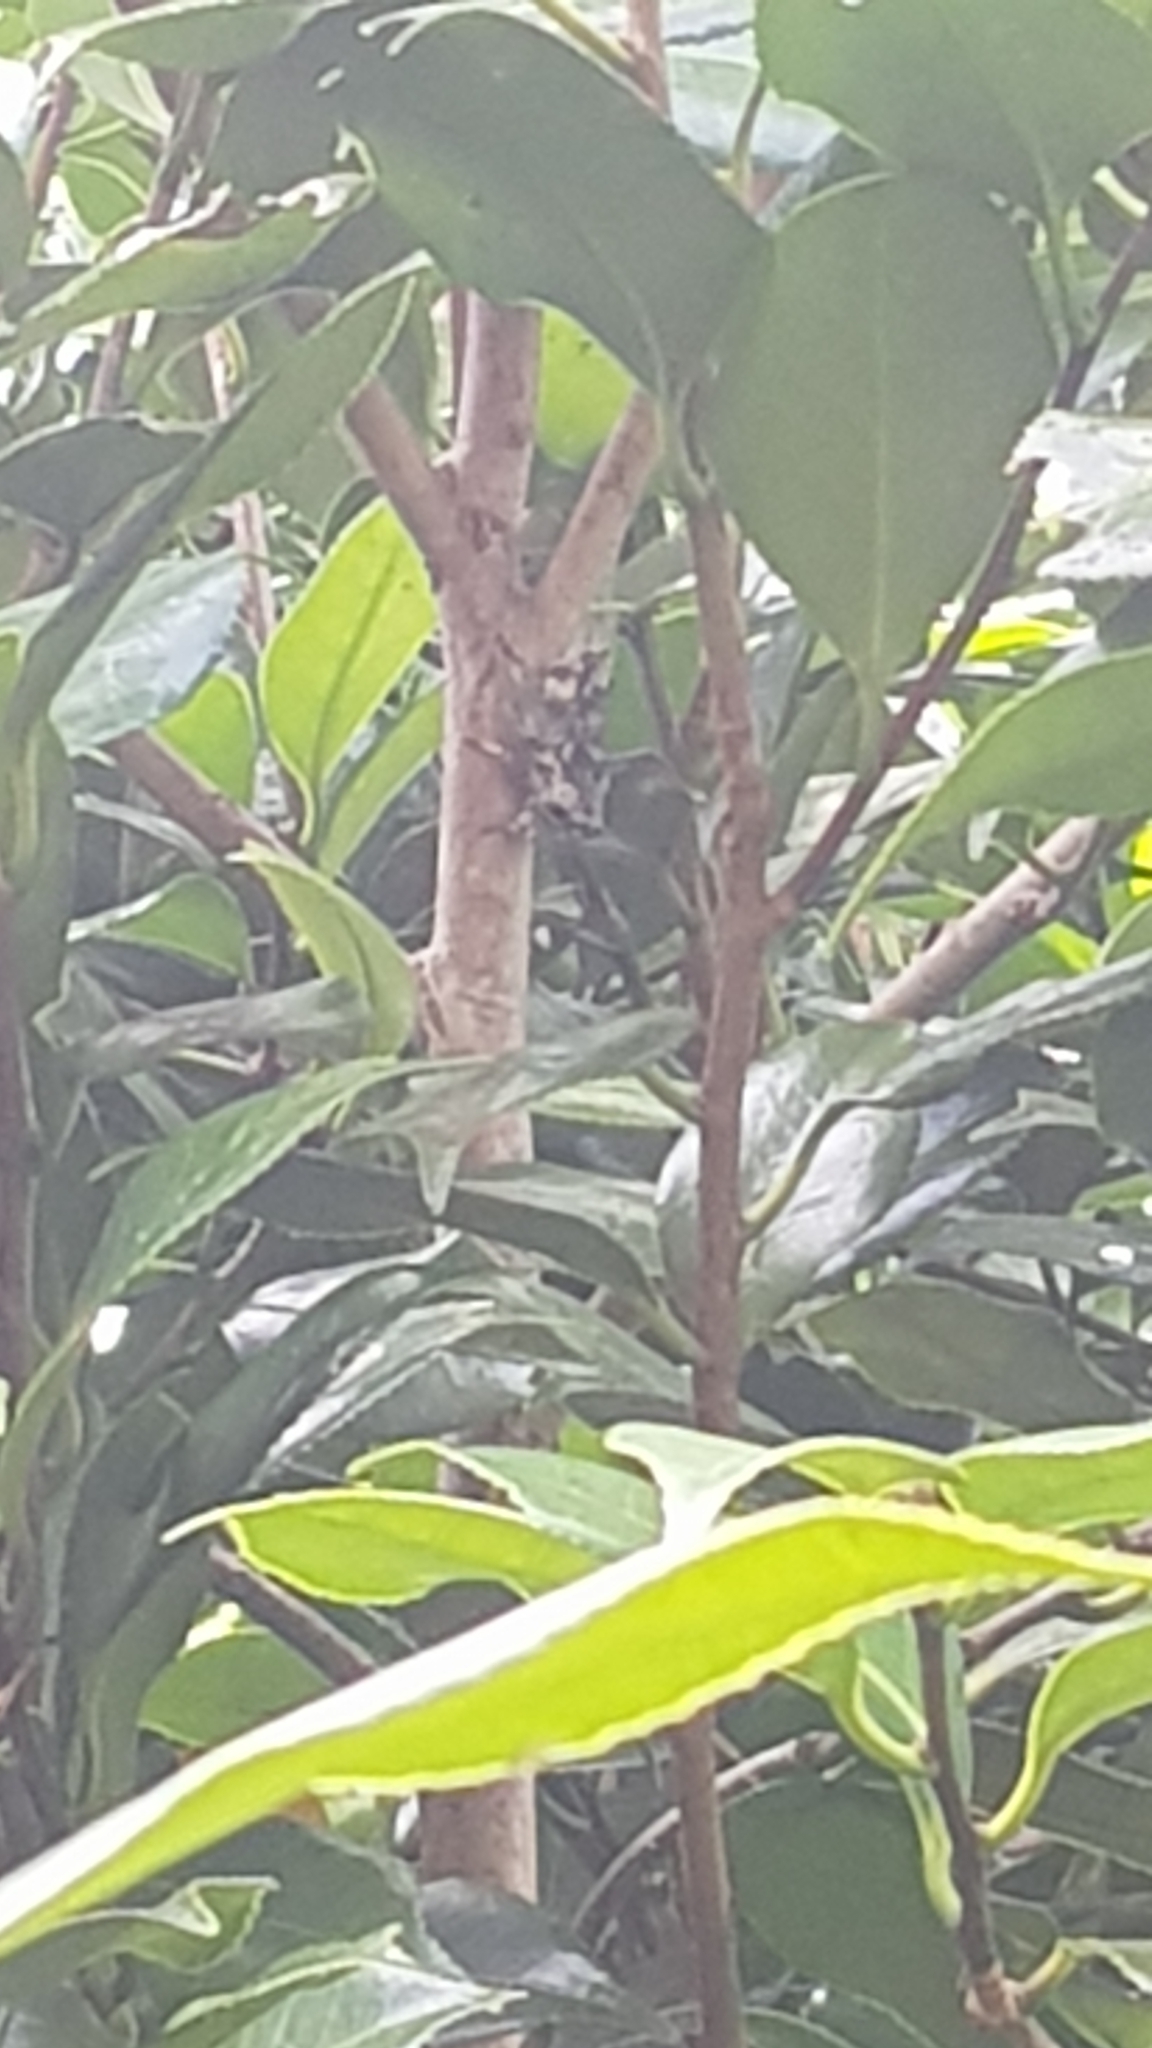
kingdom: Animalia
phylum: Arthropoda
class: Insecta
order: Hemiptera
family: Cicadidae
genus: Aleeta
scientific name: Aleeta curvicosta
